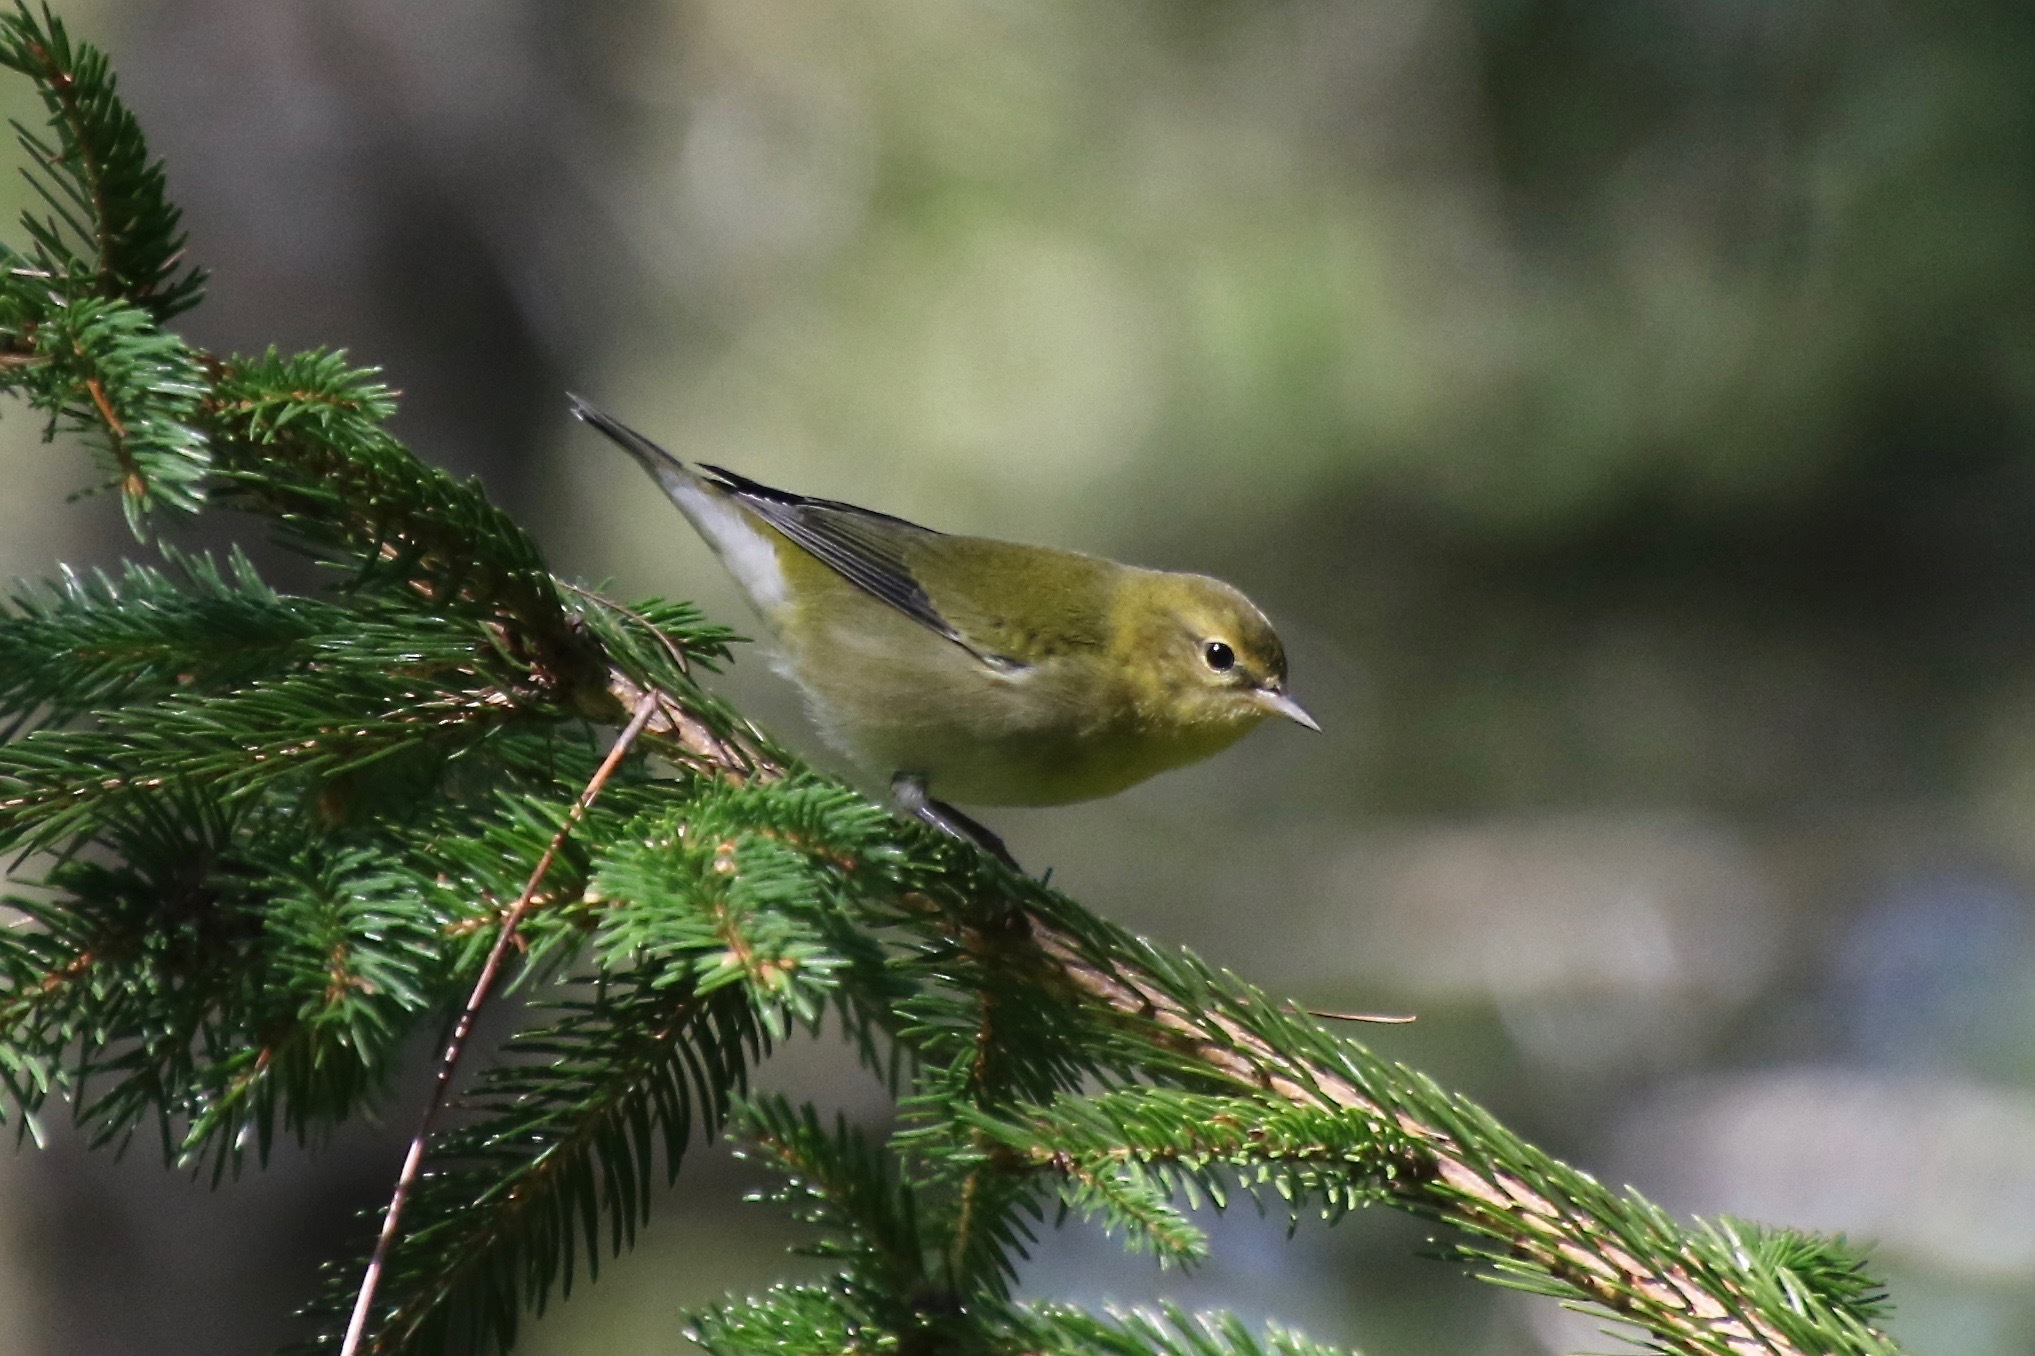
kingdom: Animalia
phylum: Chordata
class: Aves
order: Passeriformes
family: Parulidae
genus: Leiothlypis
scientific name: Leiothlypis peregrina
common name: Tennessee warbler
